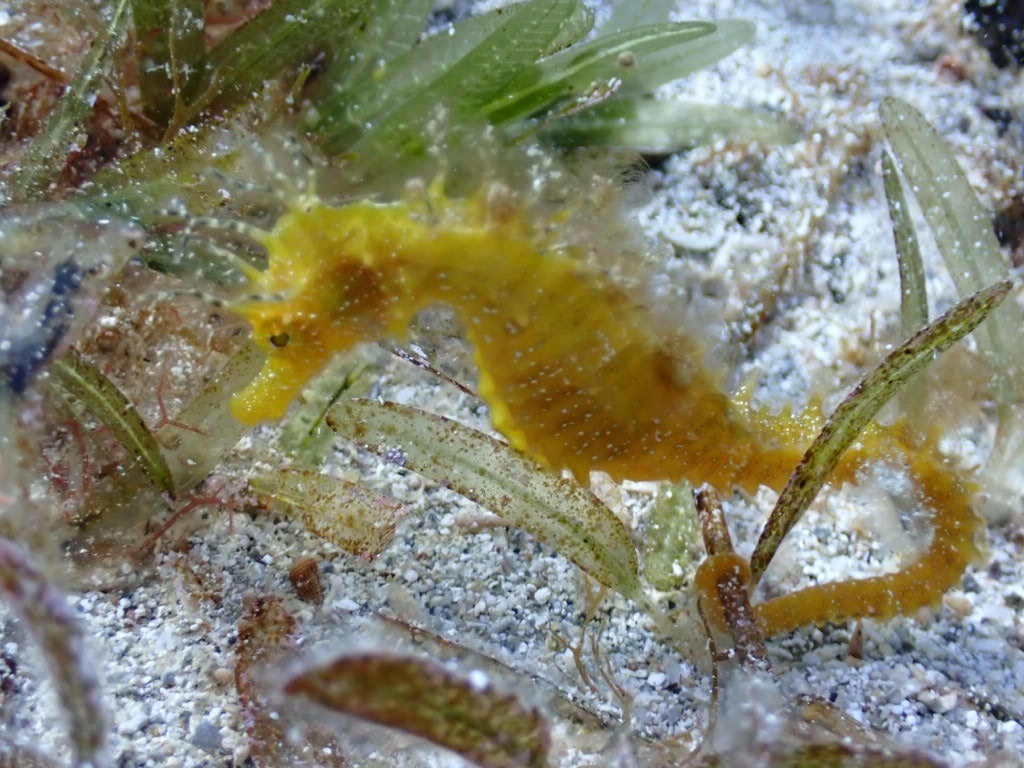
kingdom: Animalia
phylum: Chordata
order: Syngnathiformes
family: Syngnathidae
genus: Hippocampus
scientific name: Hippocampus guttulatus
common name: Long-snouted seahorse
